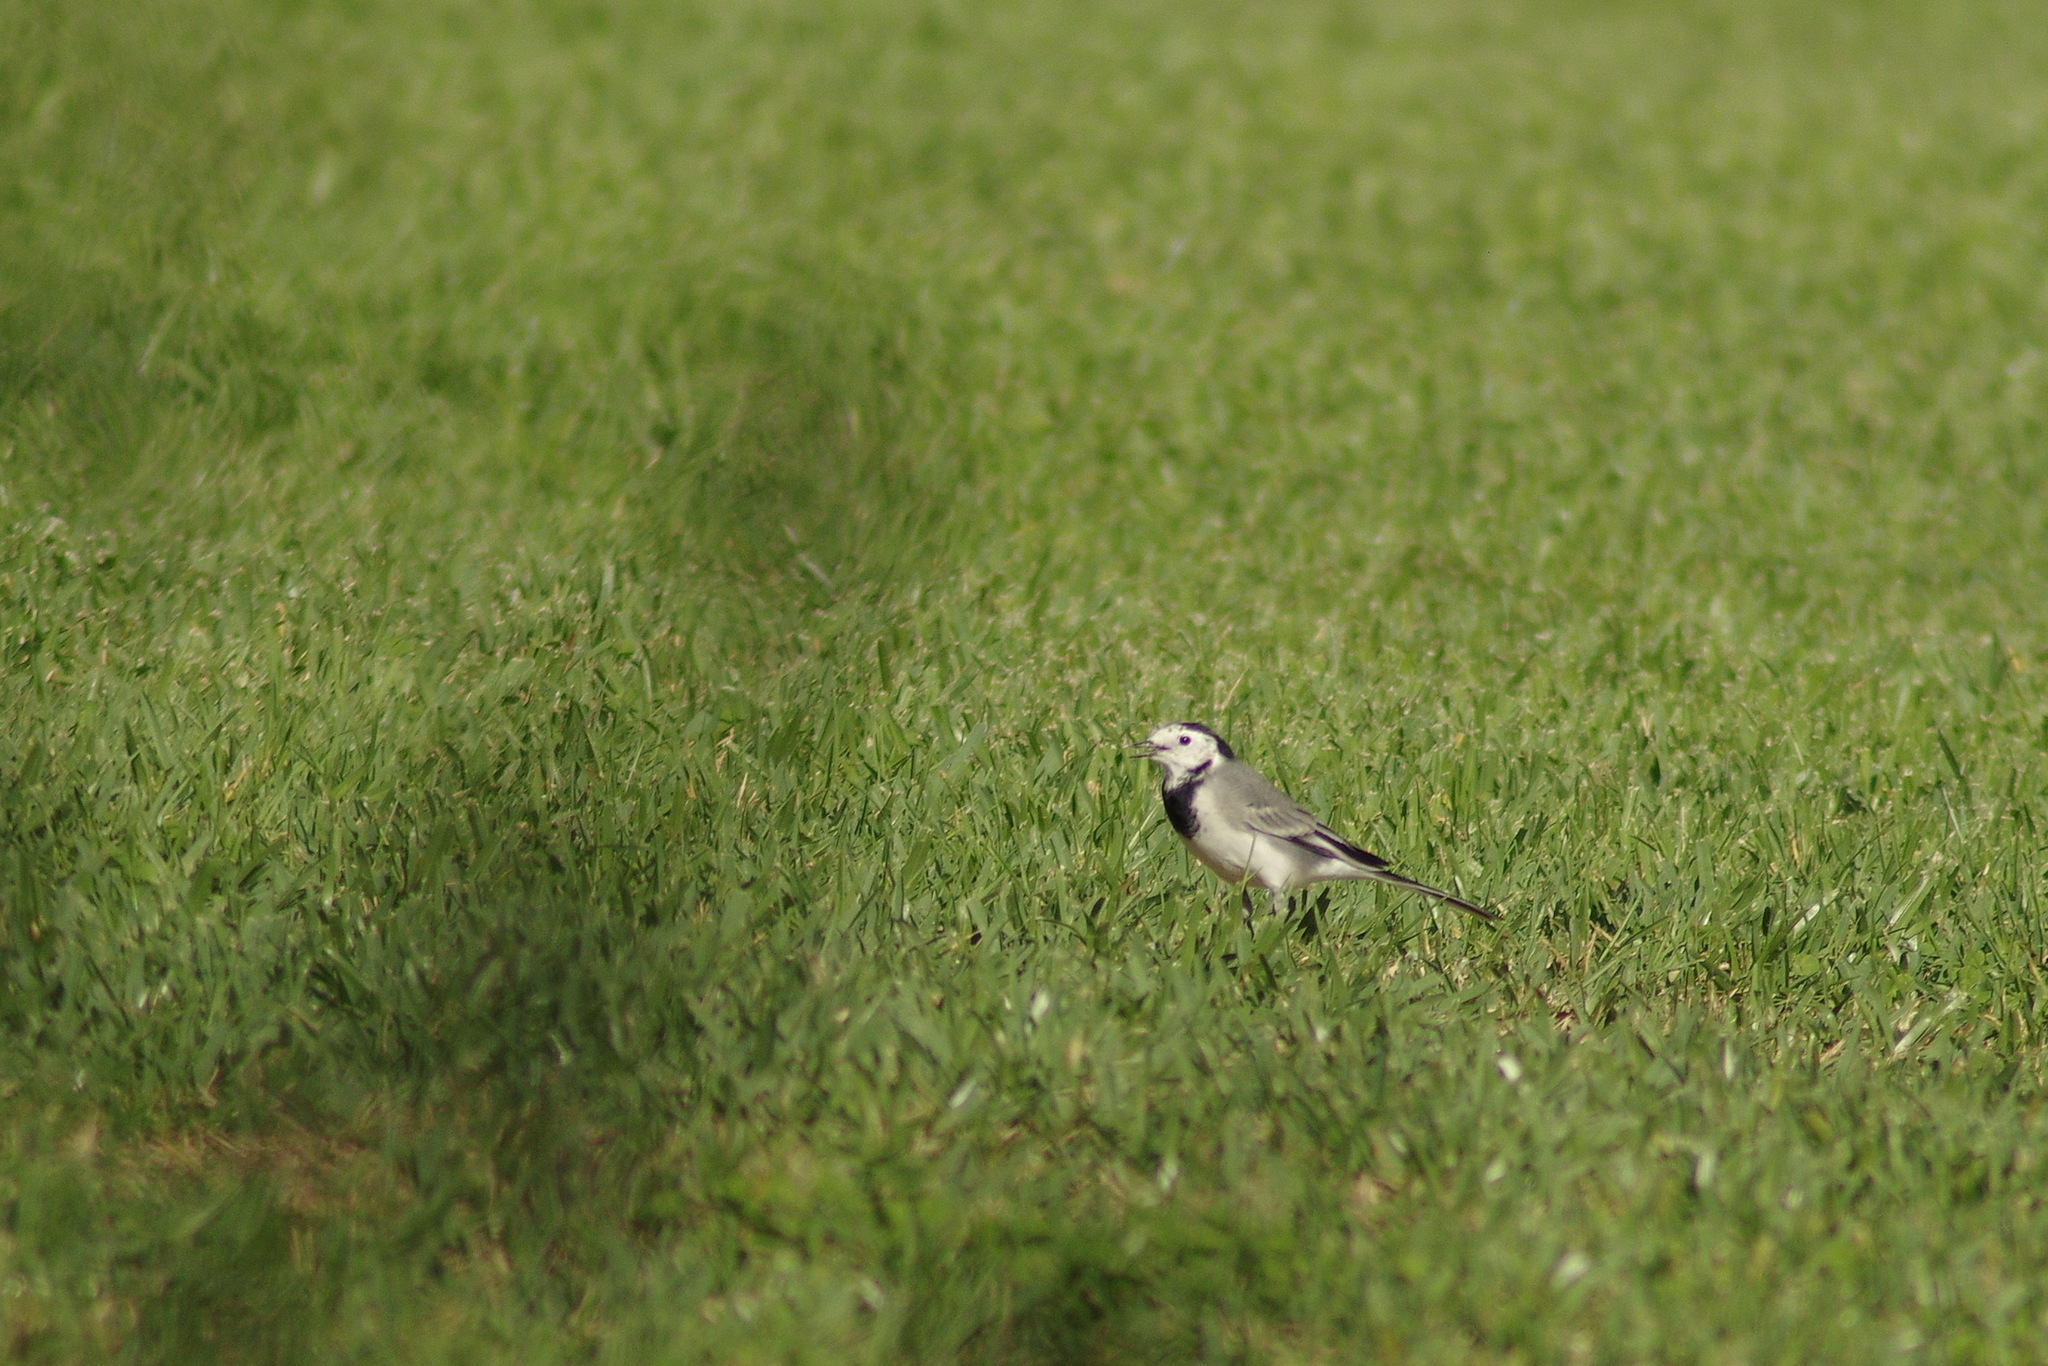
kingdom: Animalia
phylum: Chordata
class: Aves
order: Passeriformes
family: Motacillidae
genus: Motacilla
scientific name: Motacilla alba
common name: White wagtail
